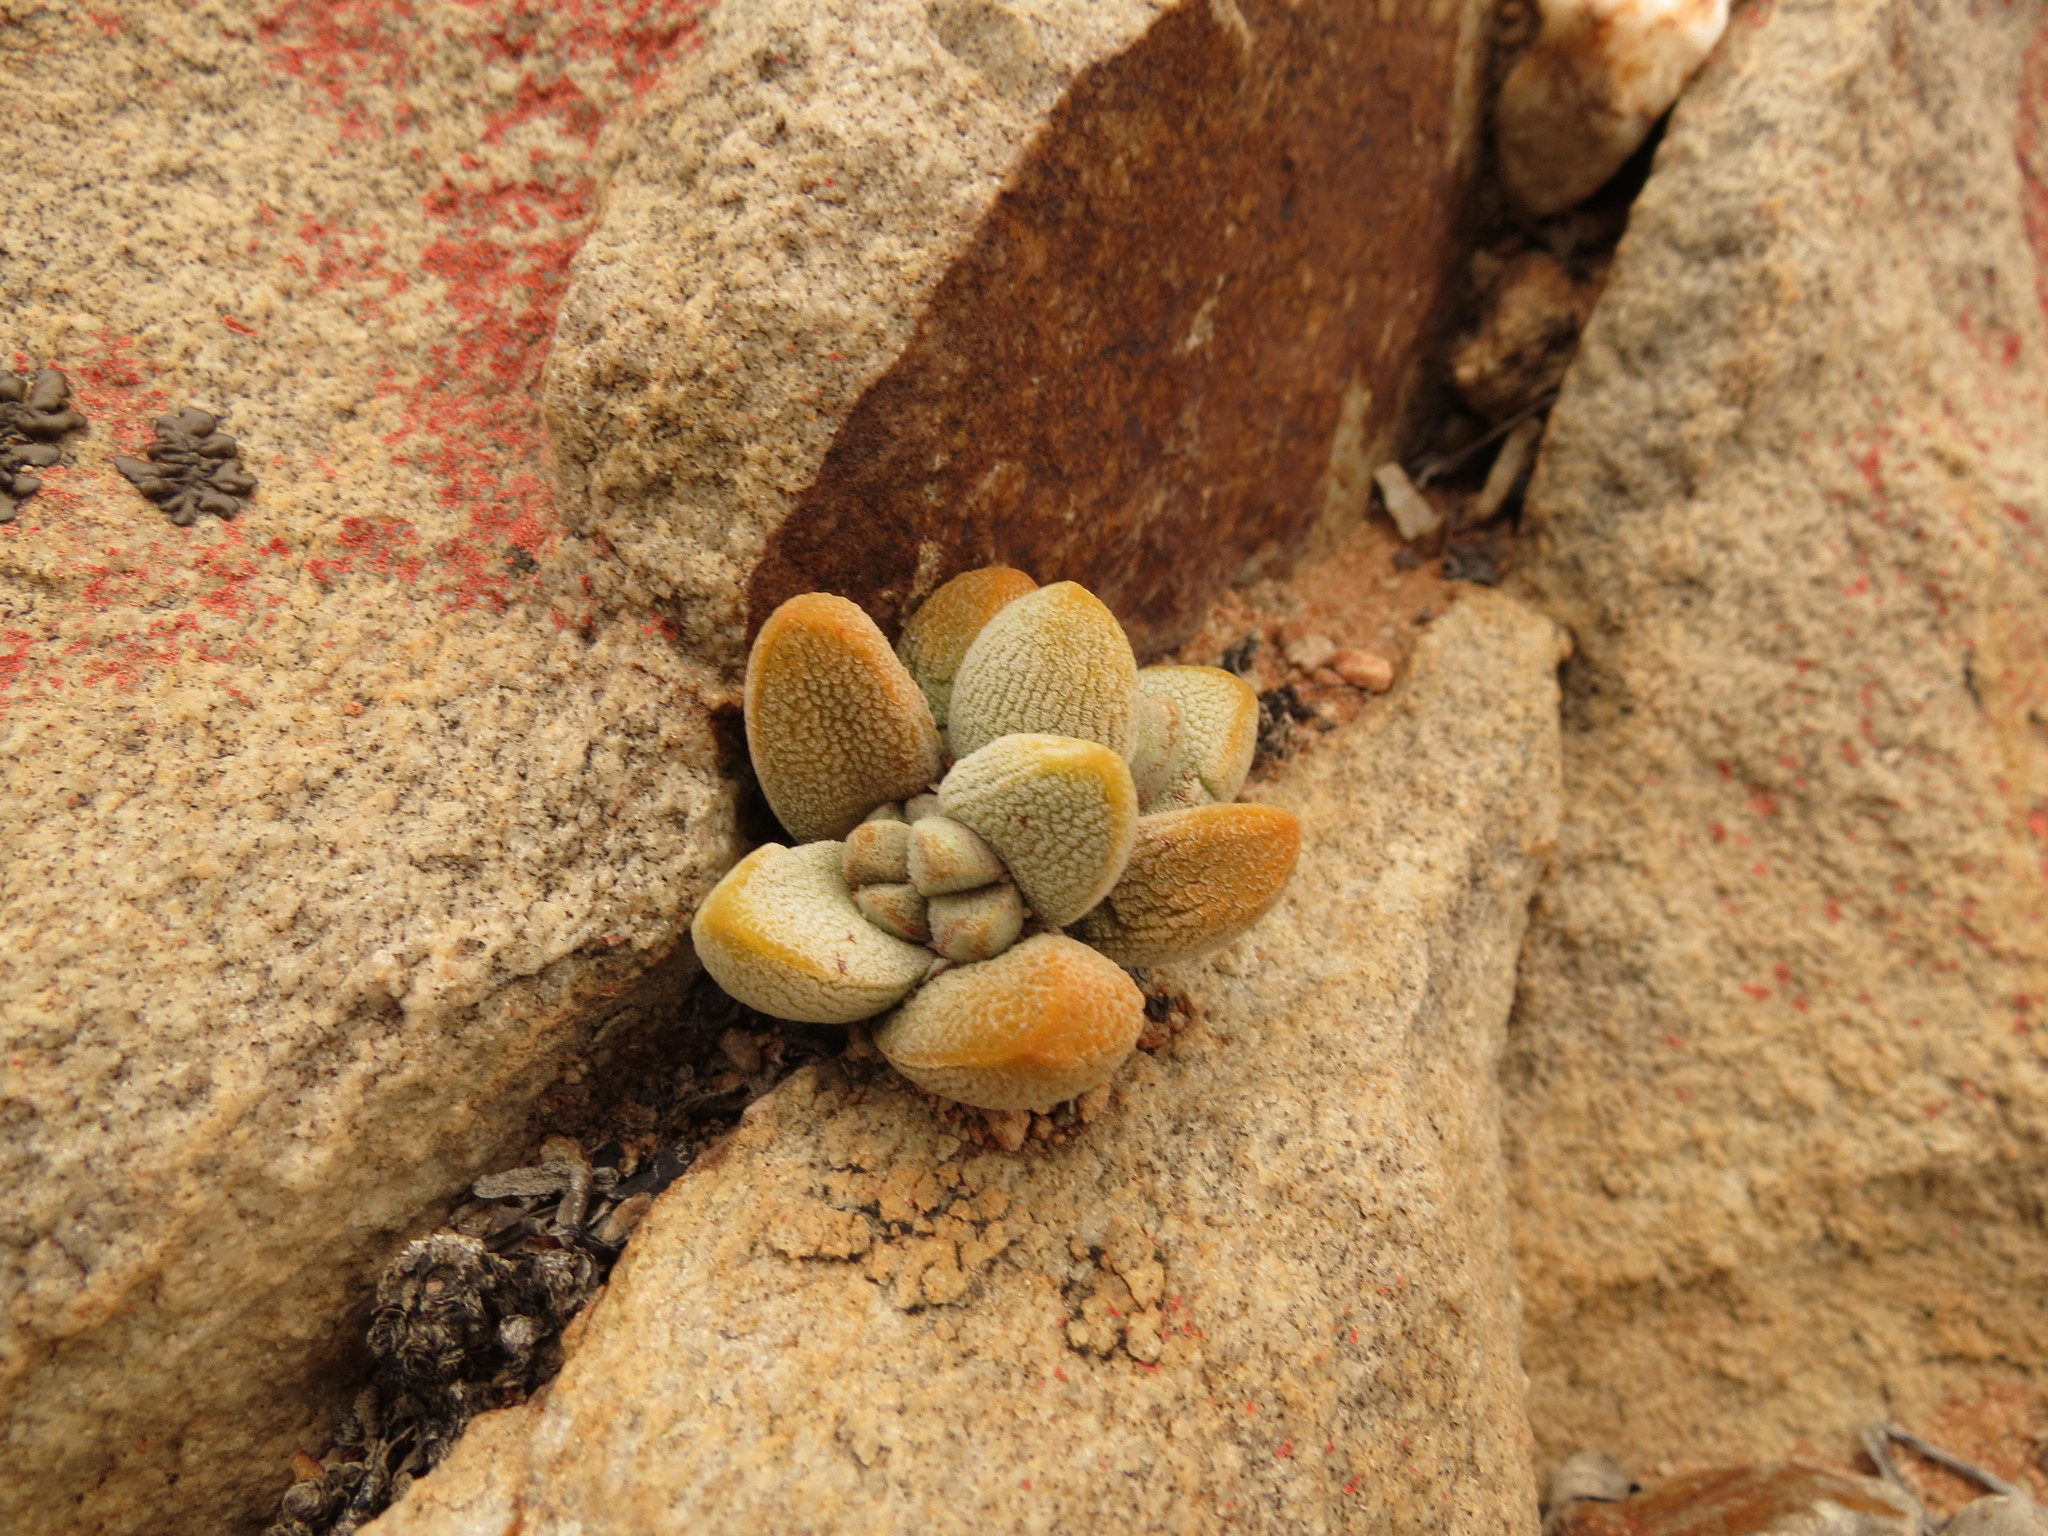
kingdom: Plantae
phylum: Tracheophyta
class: Magnoliopsida
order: Saxifragales
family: Crassulaceae
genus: Crassula
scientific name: Crassula tecta
